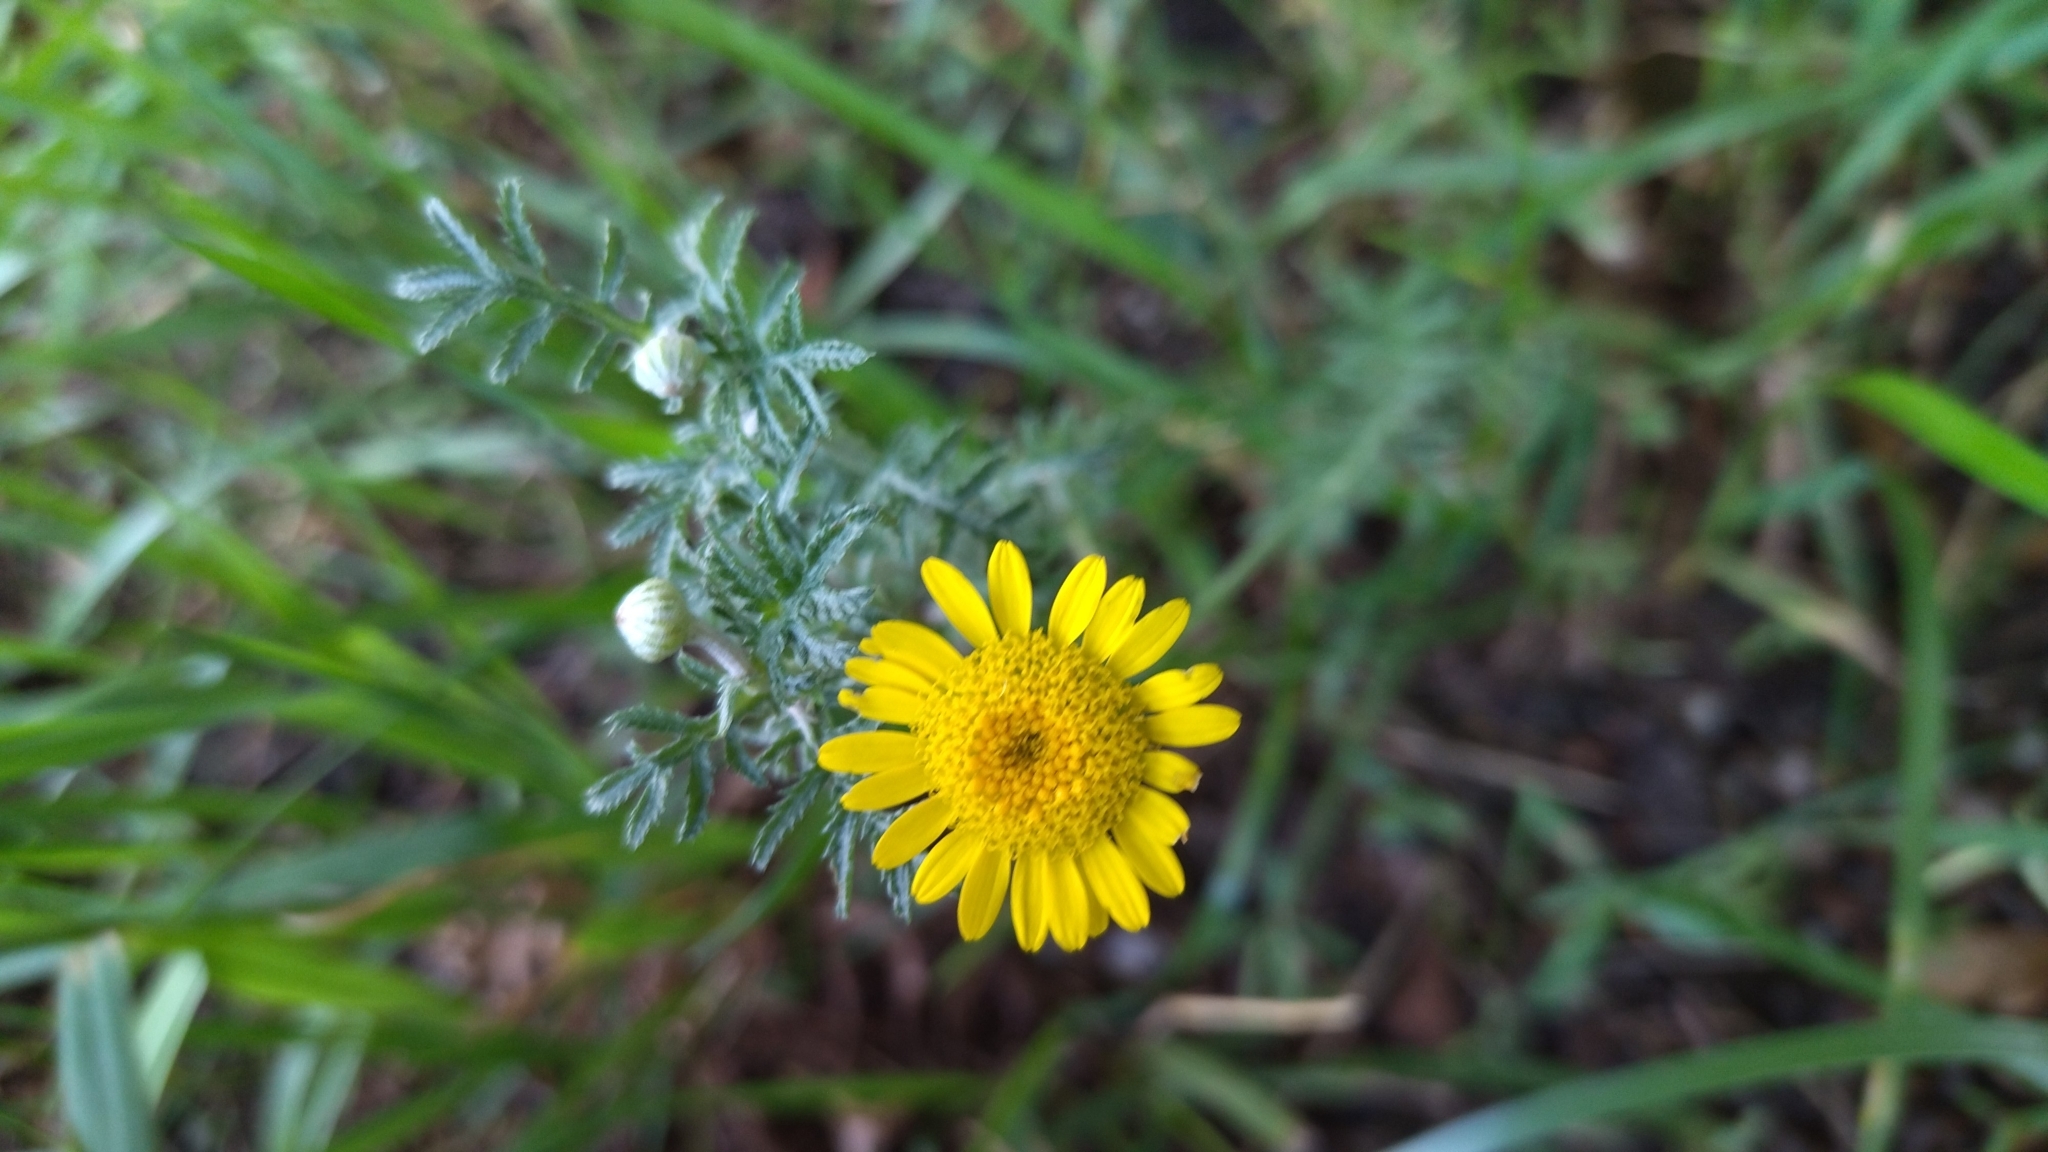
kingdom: Plantae
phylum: Tracheophyta
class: Magnoliopsida
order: Asterales
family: Asteraceae
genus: Cota
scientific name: Cota tinctoria
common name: Golden chamomile
